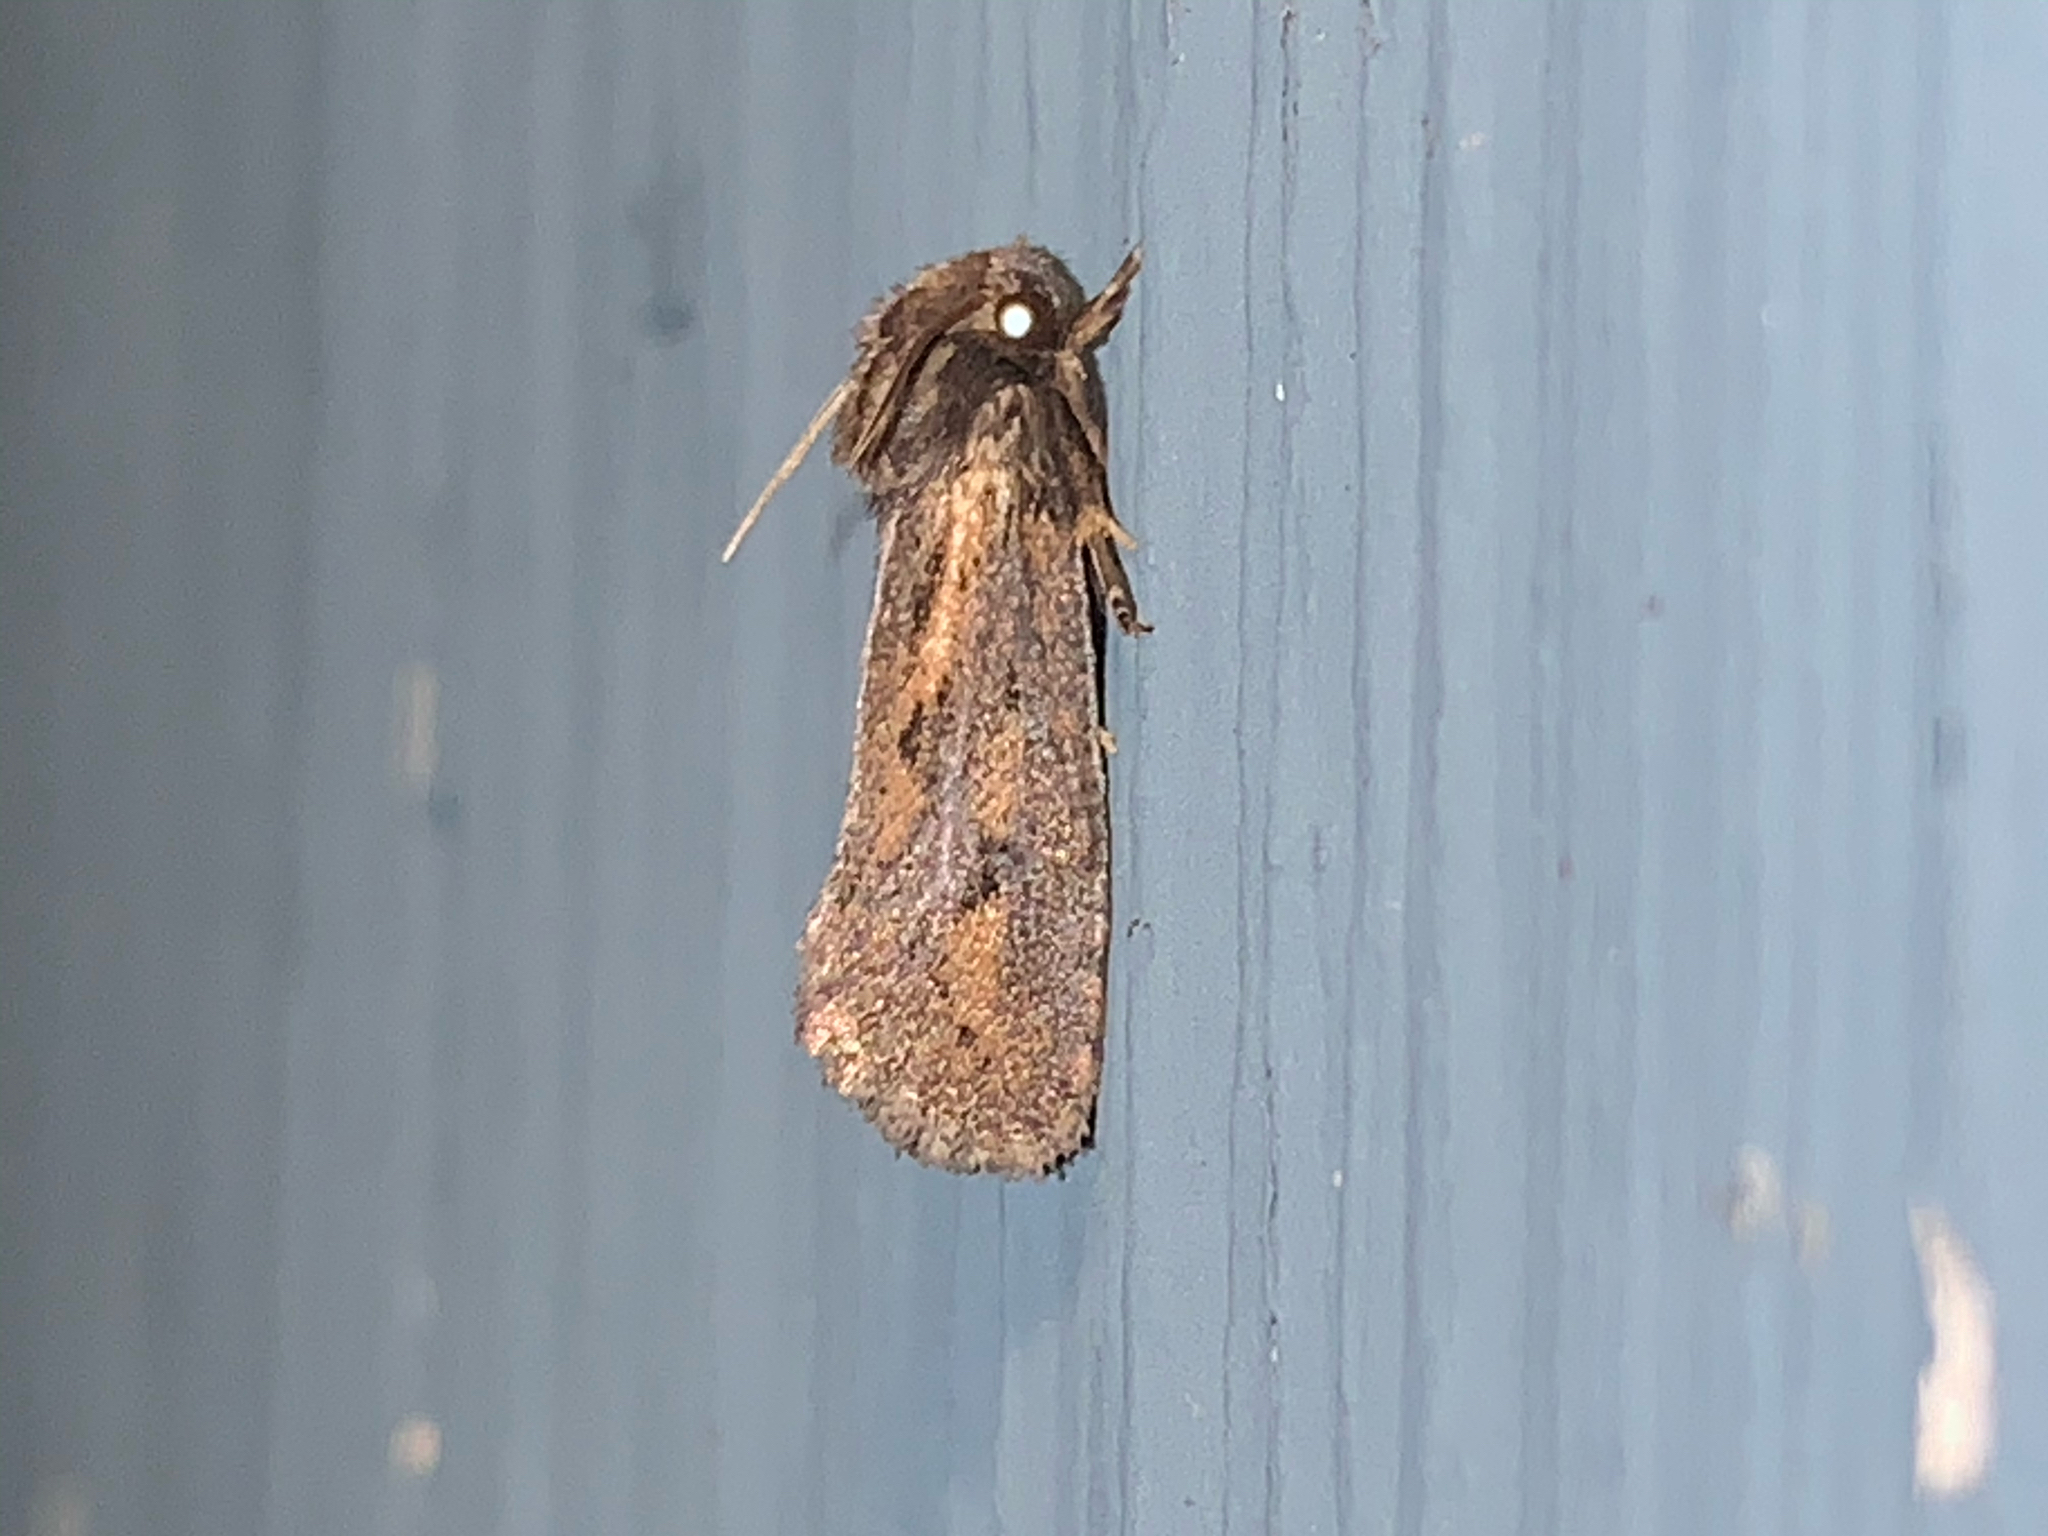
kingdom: Animalia
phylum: Arthropoda
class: Insecta
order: Lepidoptera
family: Tineidae
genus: Acrolophus
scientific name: Acrolophus popeanella
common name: Clemens' grass tubeworm moth
